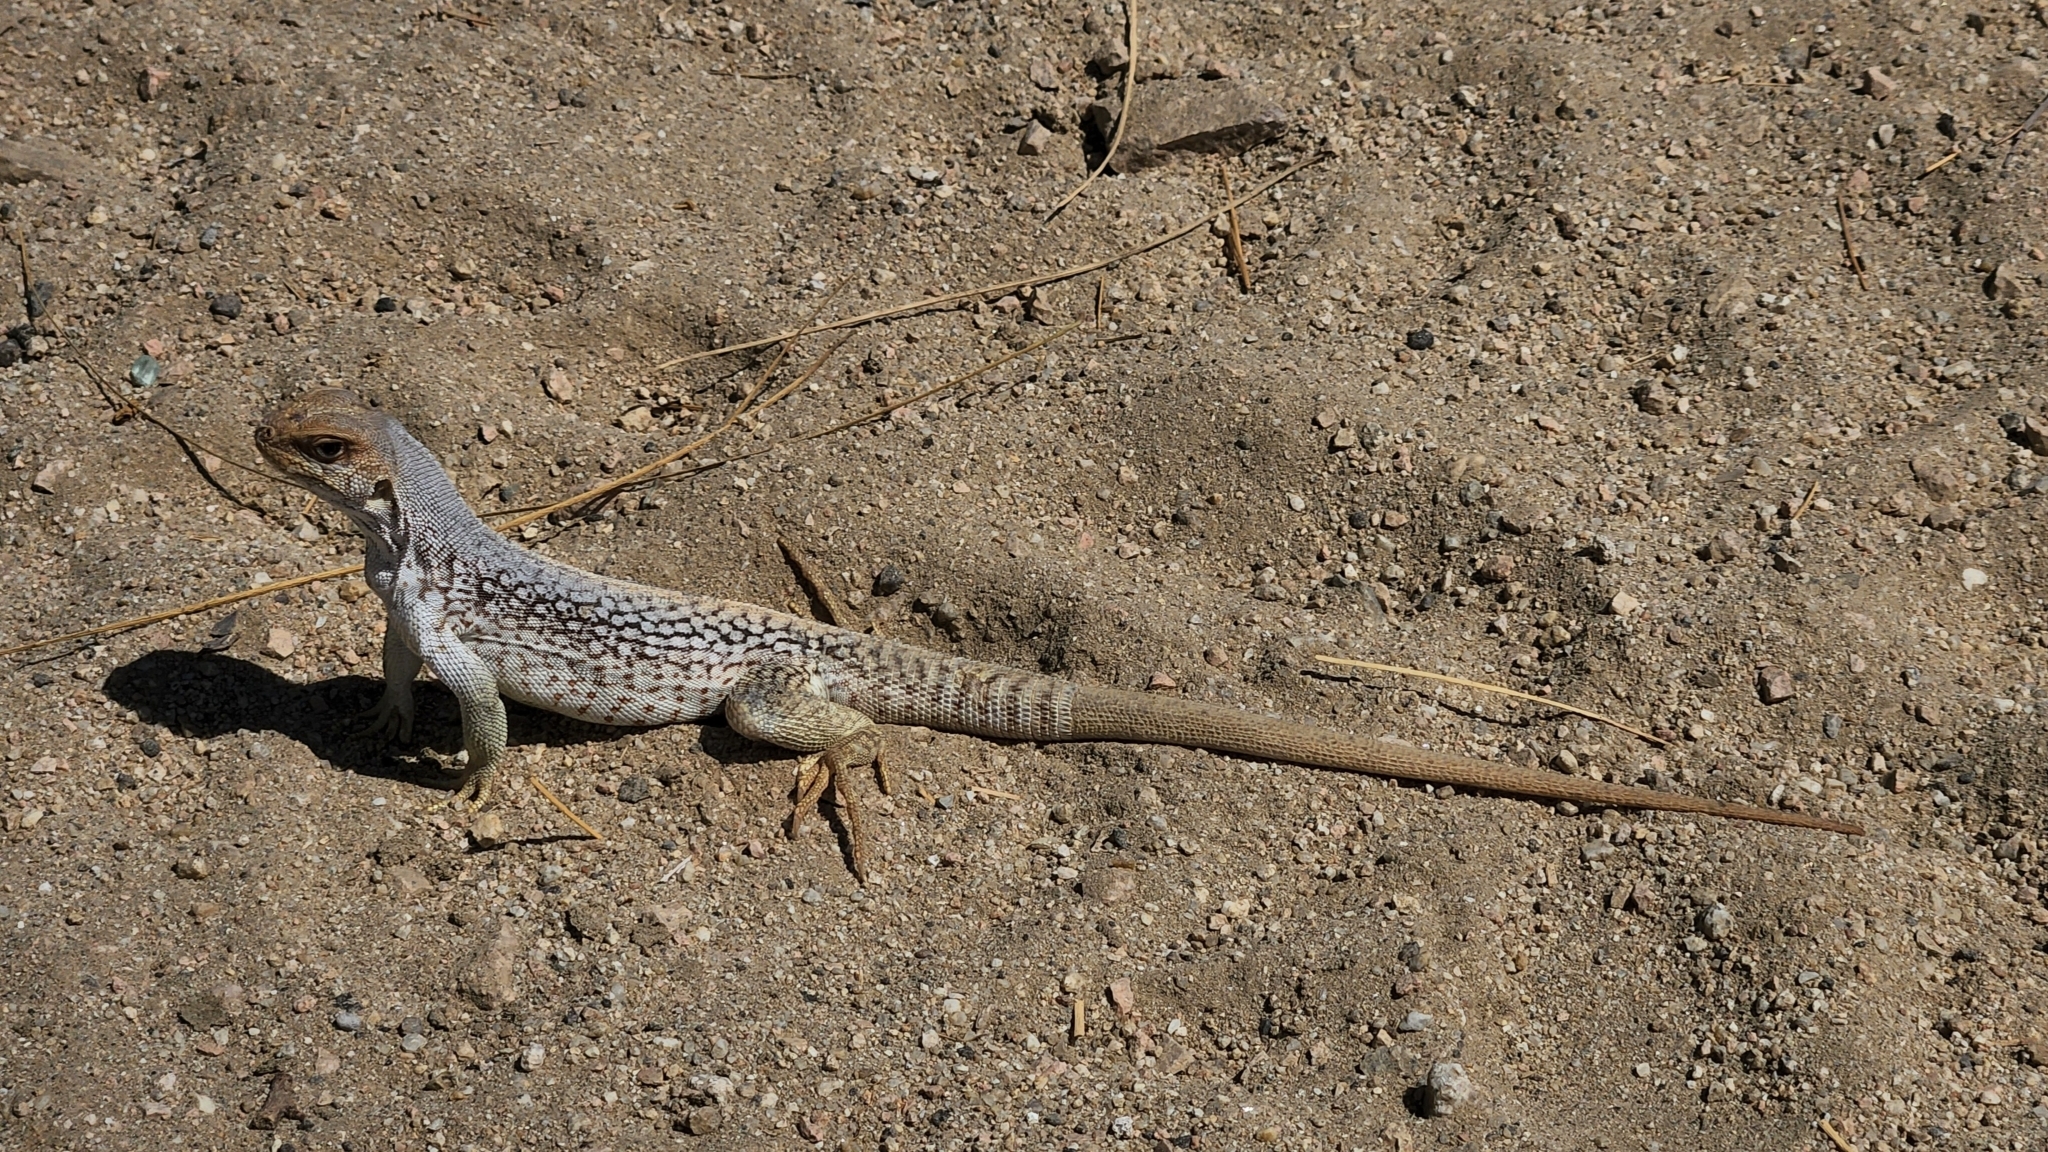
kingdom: Animalia
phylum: Chordata
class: Squamata
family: Iguanidae
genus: Dipsosaurus
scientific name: Dipsosaurus dorsalis
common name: Desert iguana
